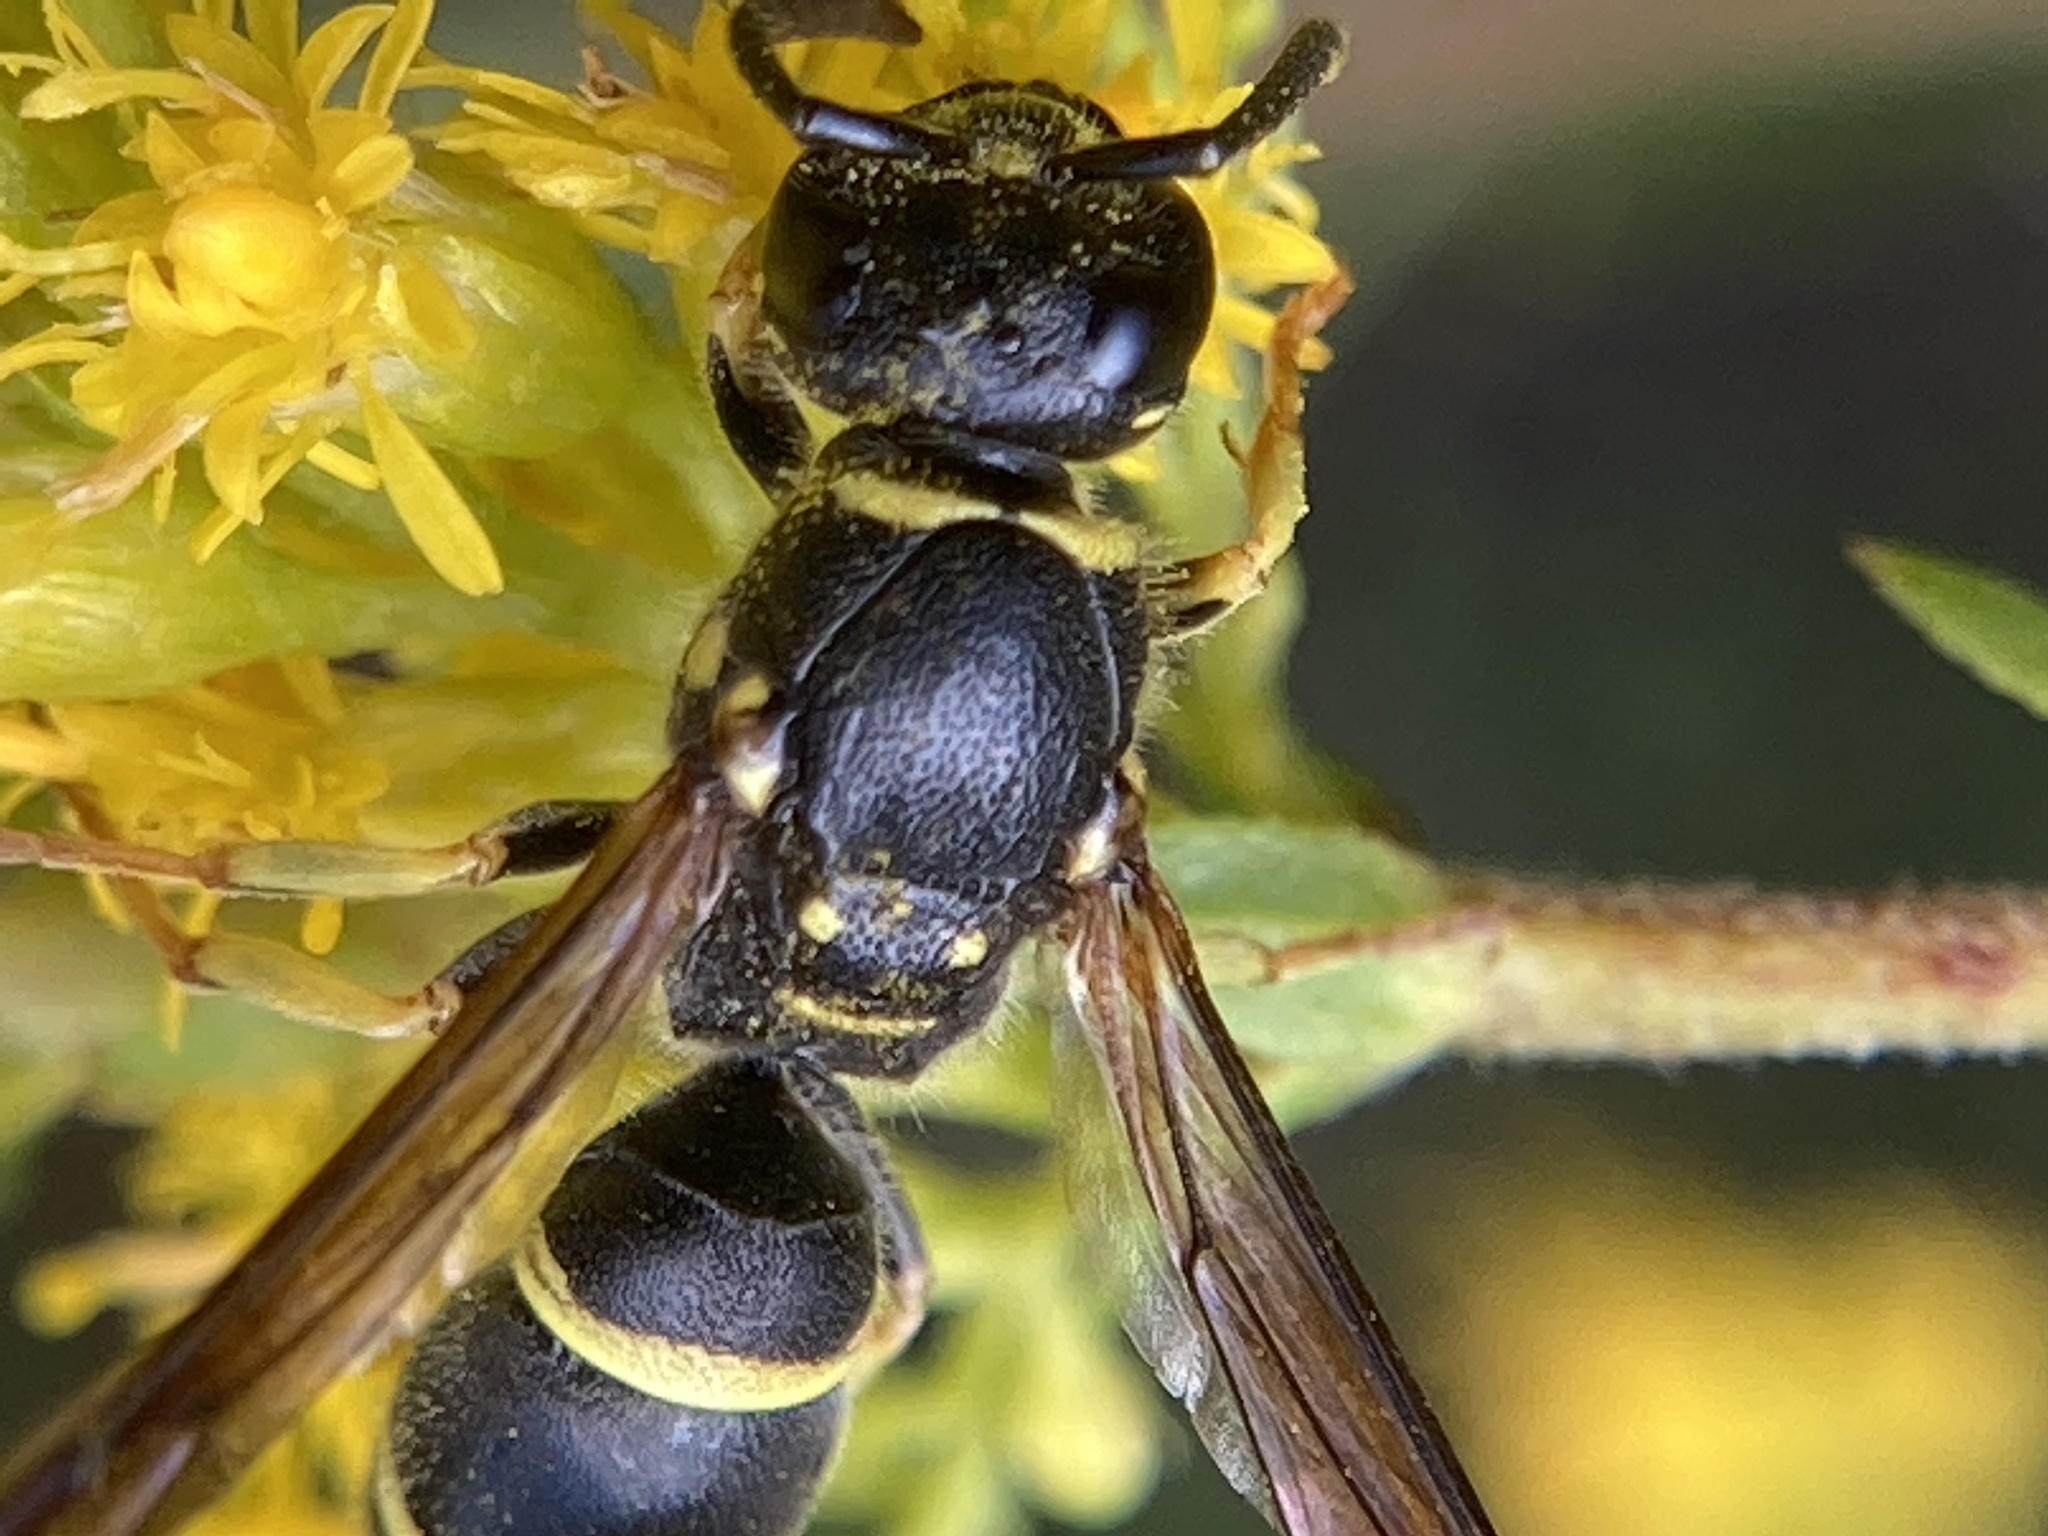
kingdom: Animalia
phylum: Arthropoda
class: Insecta
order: Hymenoptera
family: Vespidae
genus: Ancistrocerus
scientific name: Ancistrocerus adiabatus
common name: Bramble mason wasp
